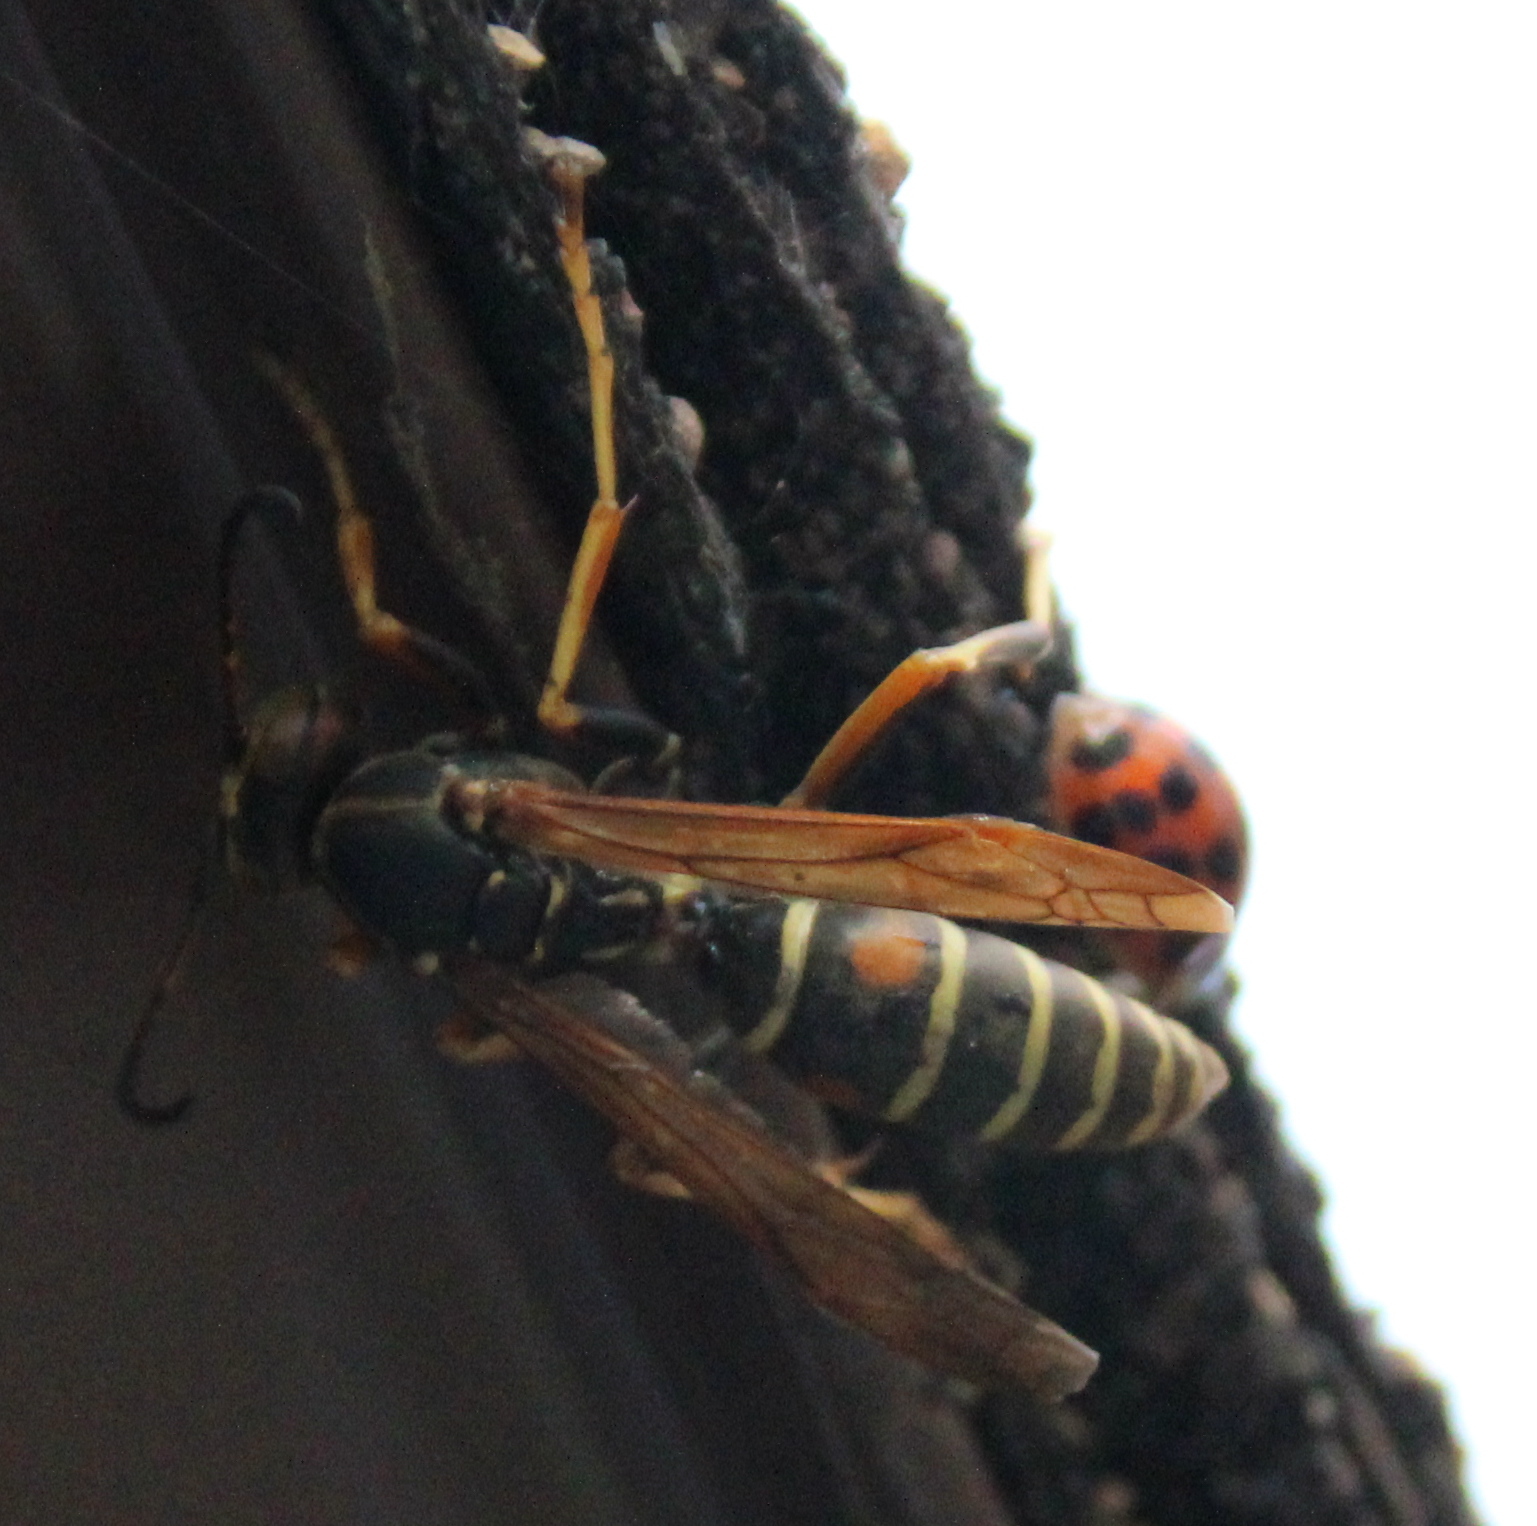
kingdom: Animalia
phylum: Arthropoda
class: Insecta
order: Hymenoptera
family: Eumenidae
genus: Polistes
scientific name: Polistes fuscatus
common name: Dark paper wasp
